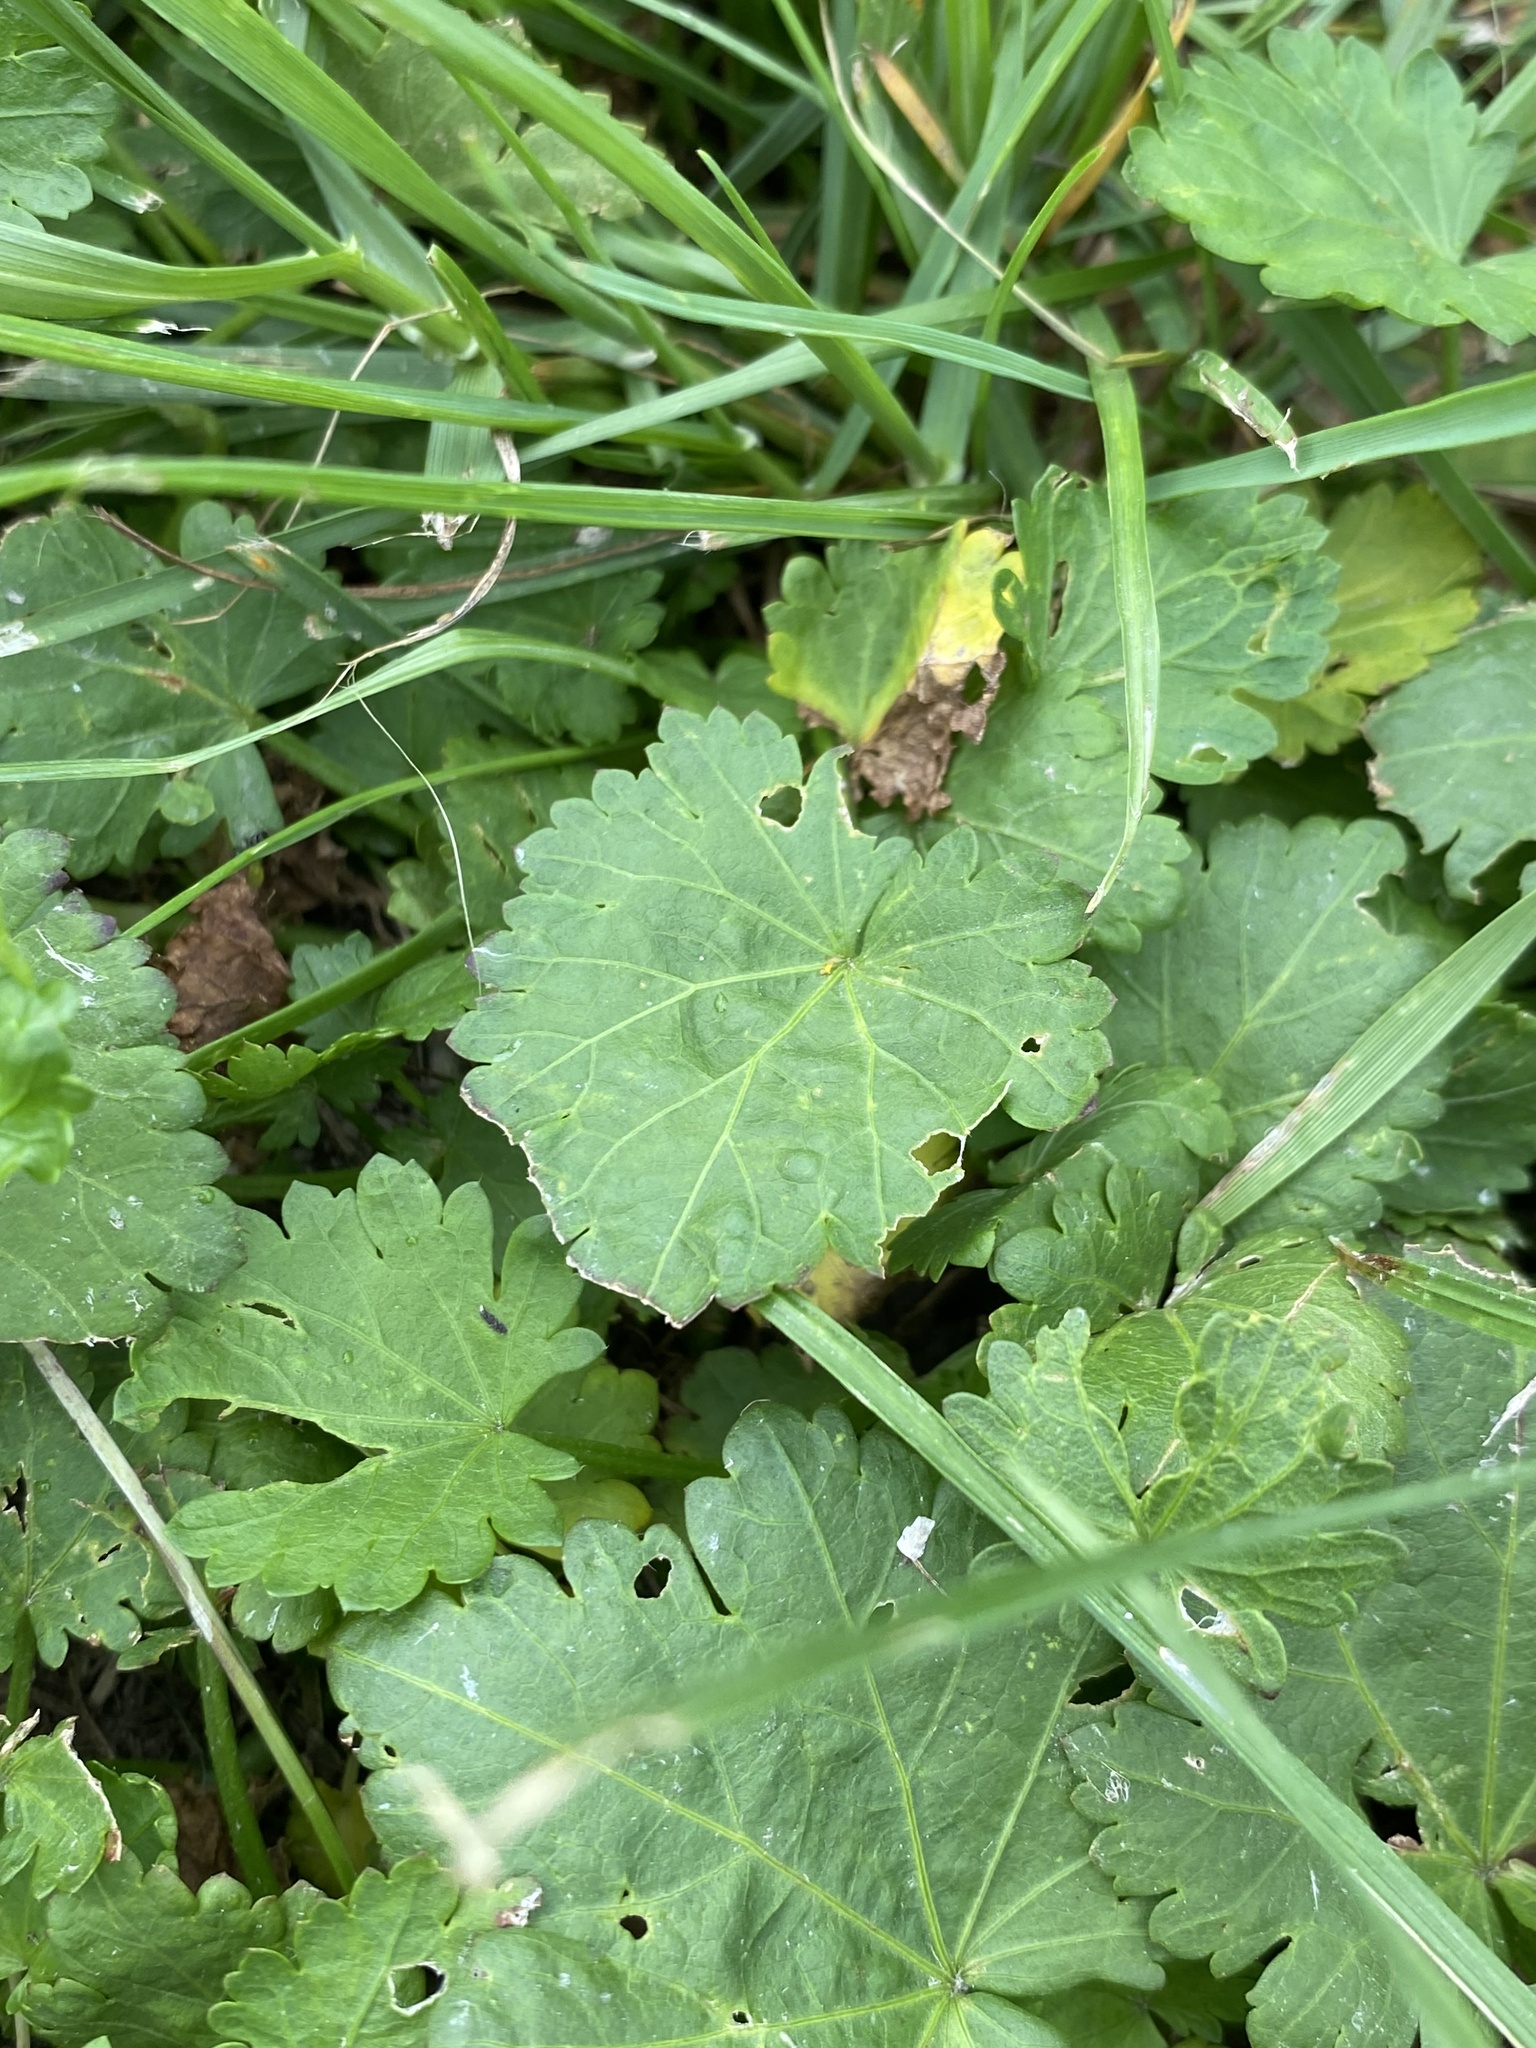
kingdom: Plantae
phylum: Tracheophyta
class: Magnoliopsida
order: Malvales
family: Malvaceae
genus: Modiola
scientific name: Modiola caroliniana
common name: Carolina bristlemallow
